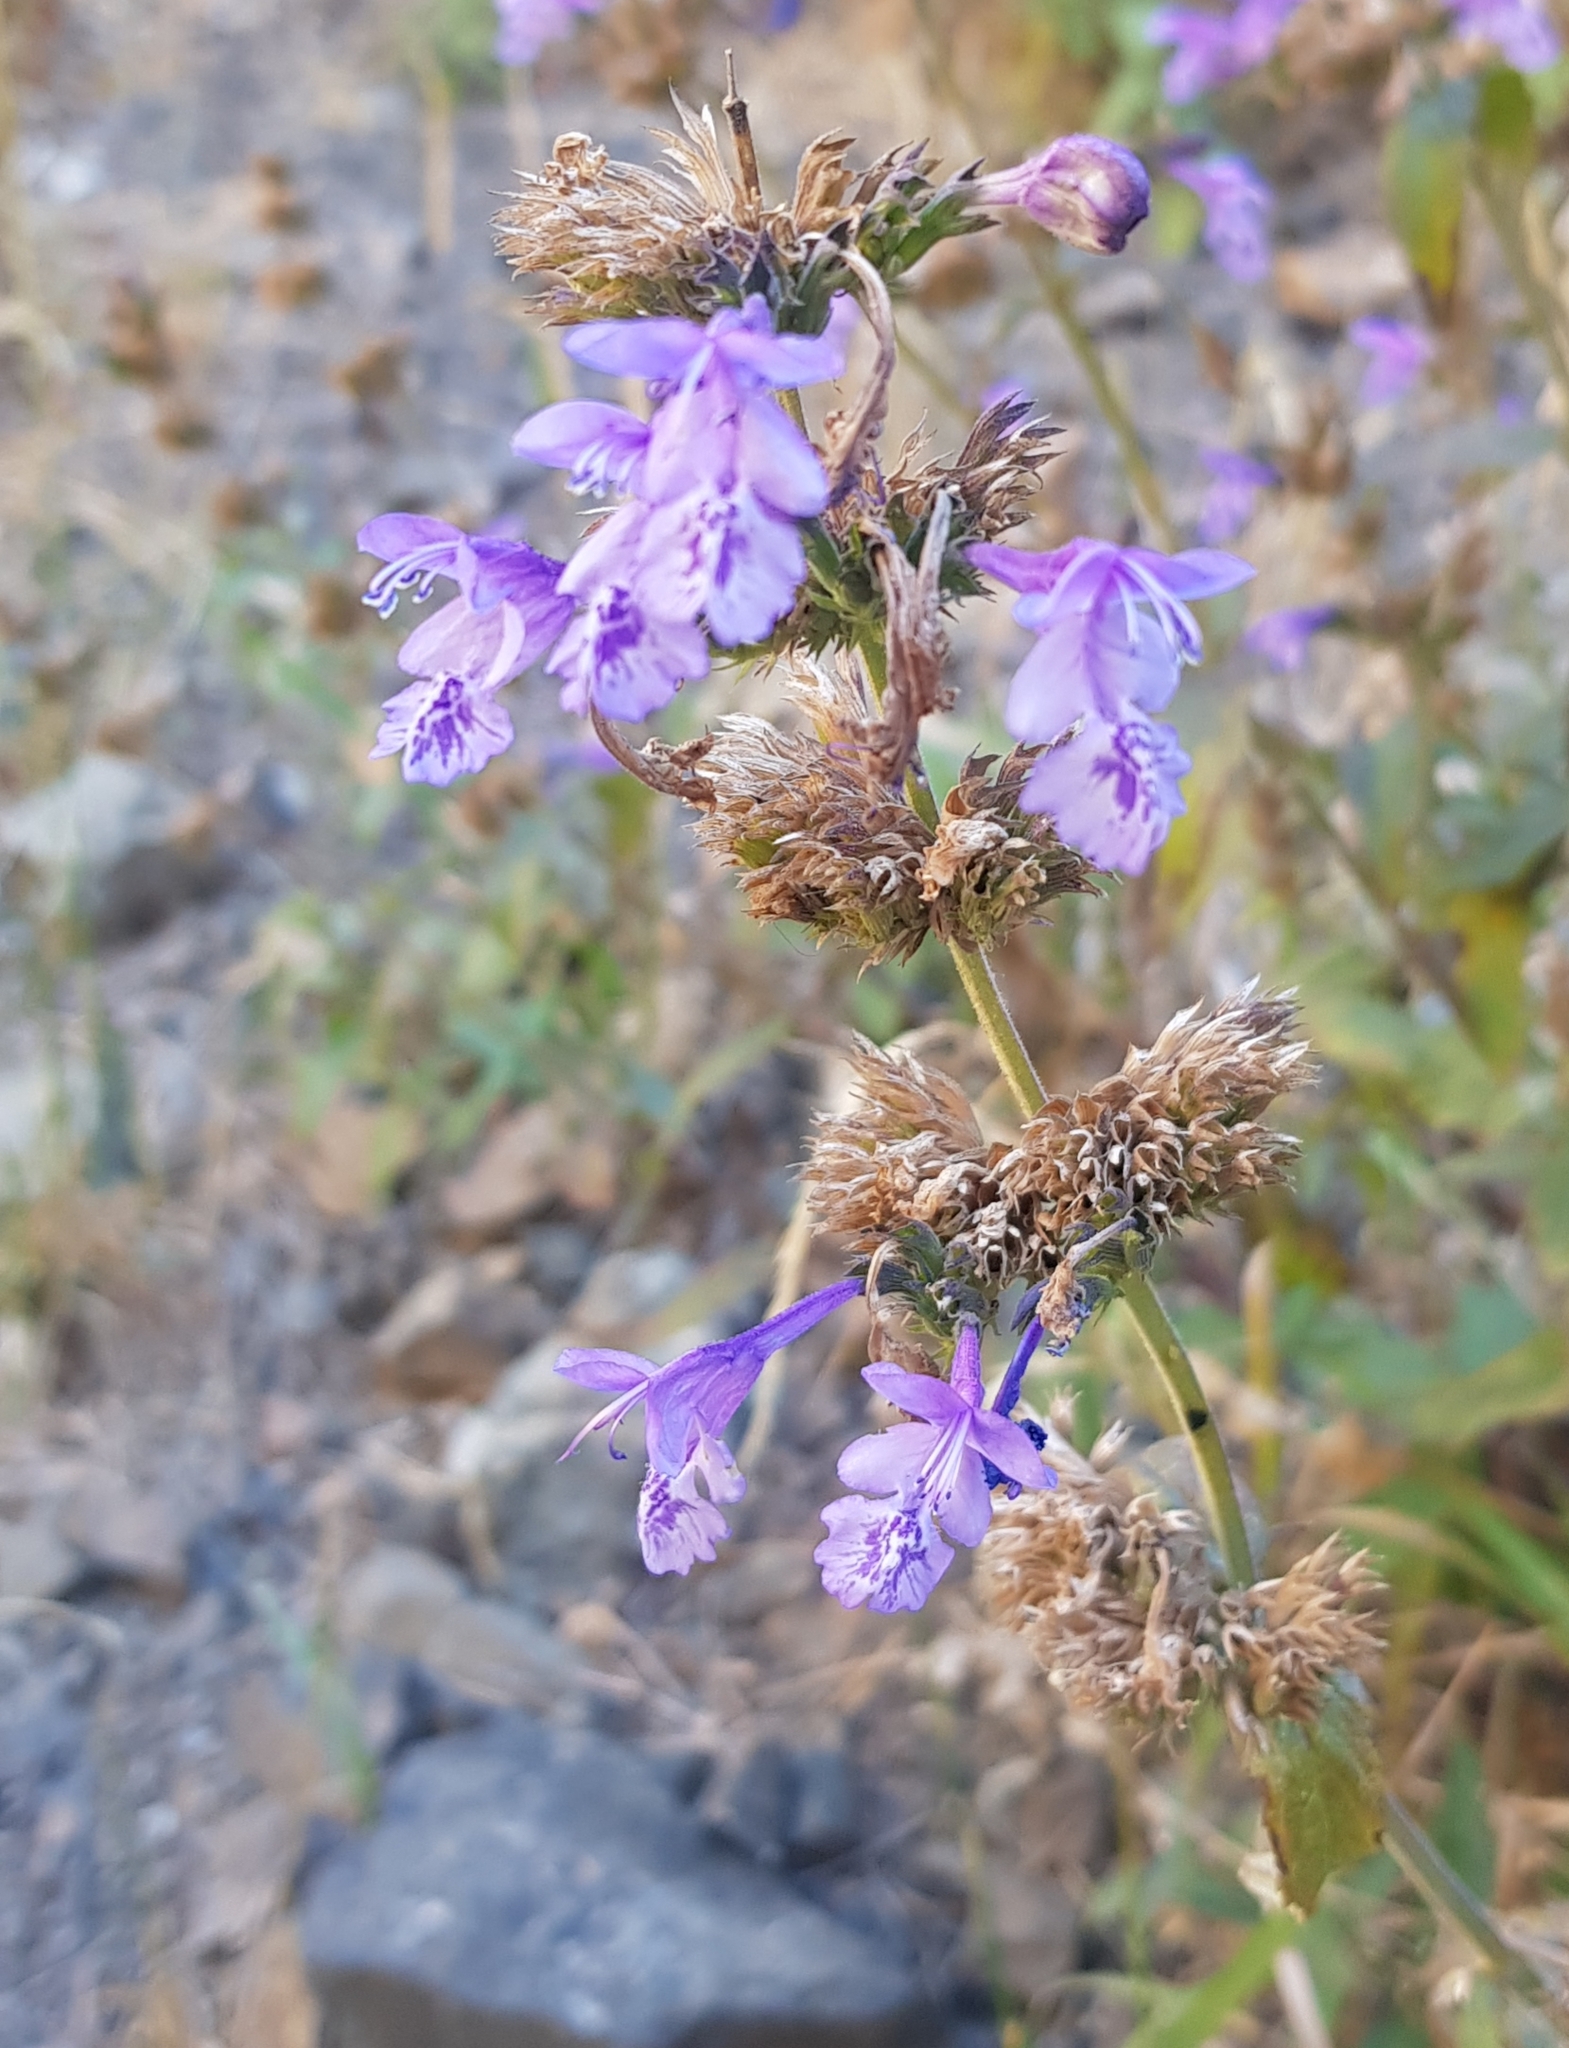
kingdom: Plantae
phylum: Tracheophyta
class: Magnoliopsida
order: Lamiales
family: Lamiaceae
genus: Dracocephalum
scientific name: Dracocephalum nutans
